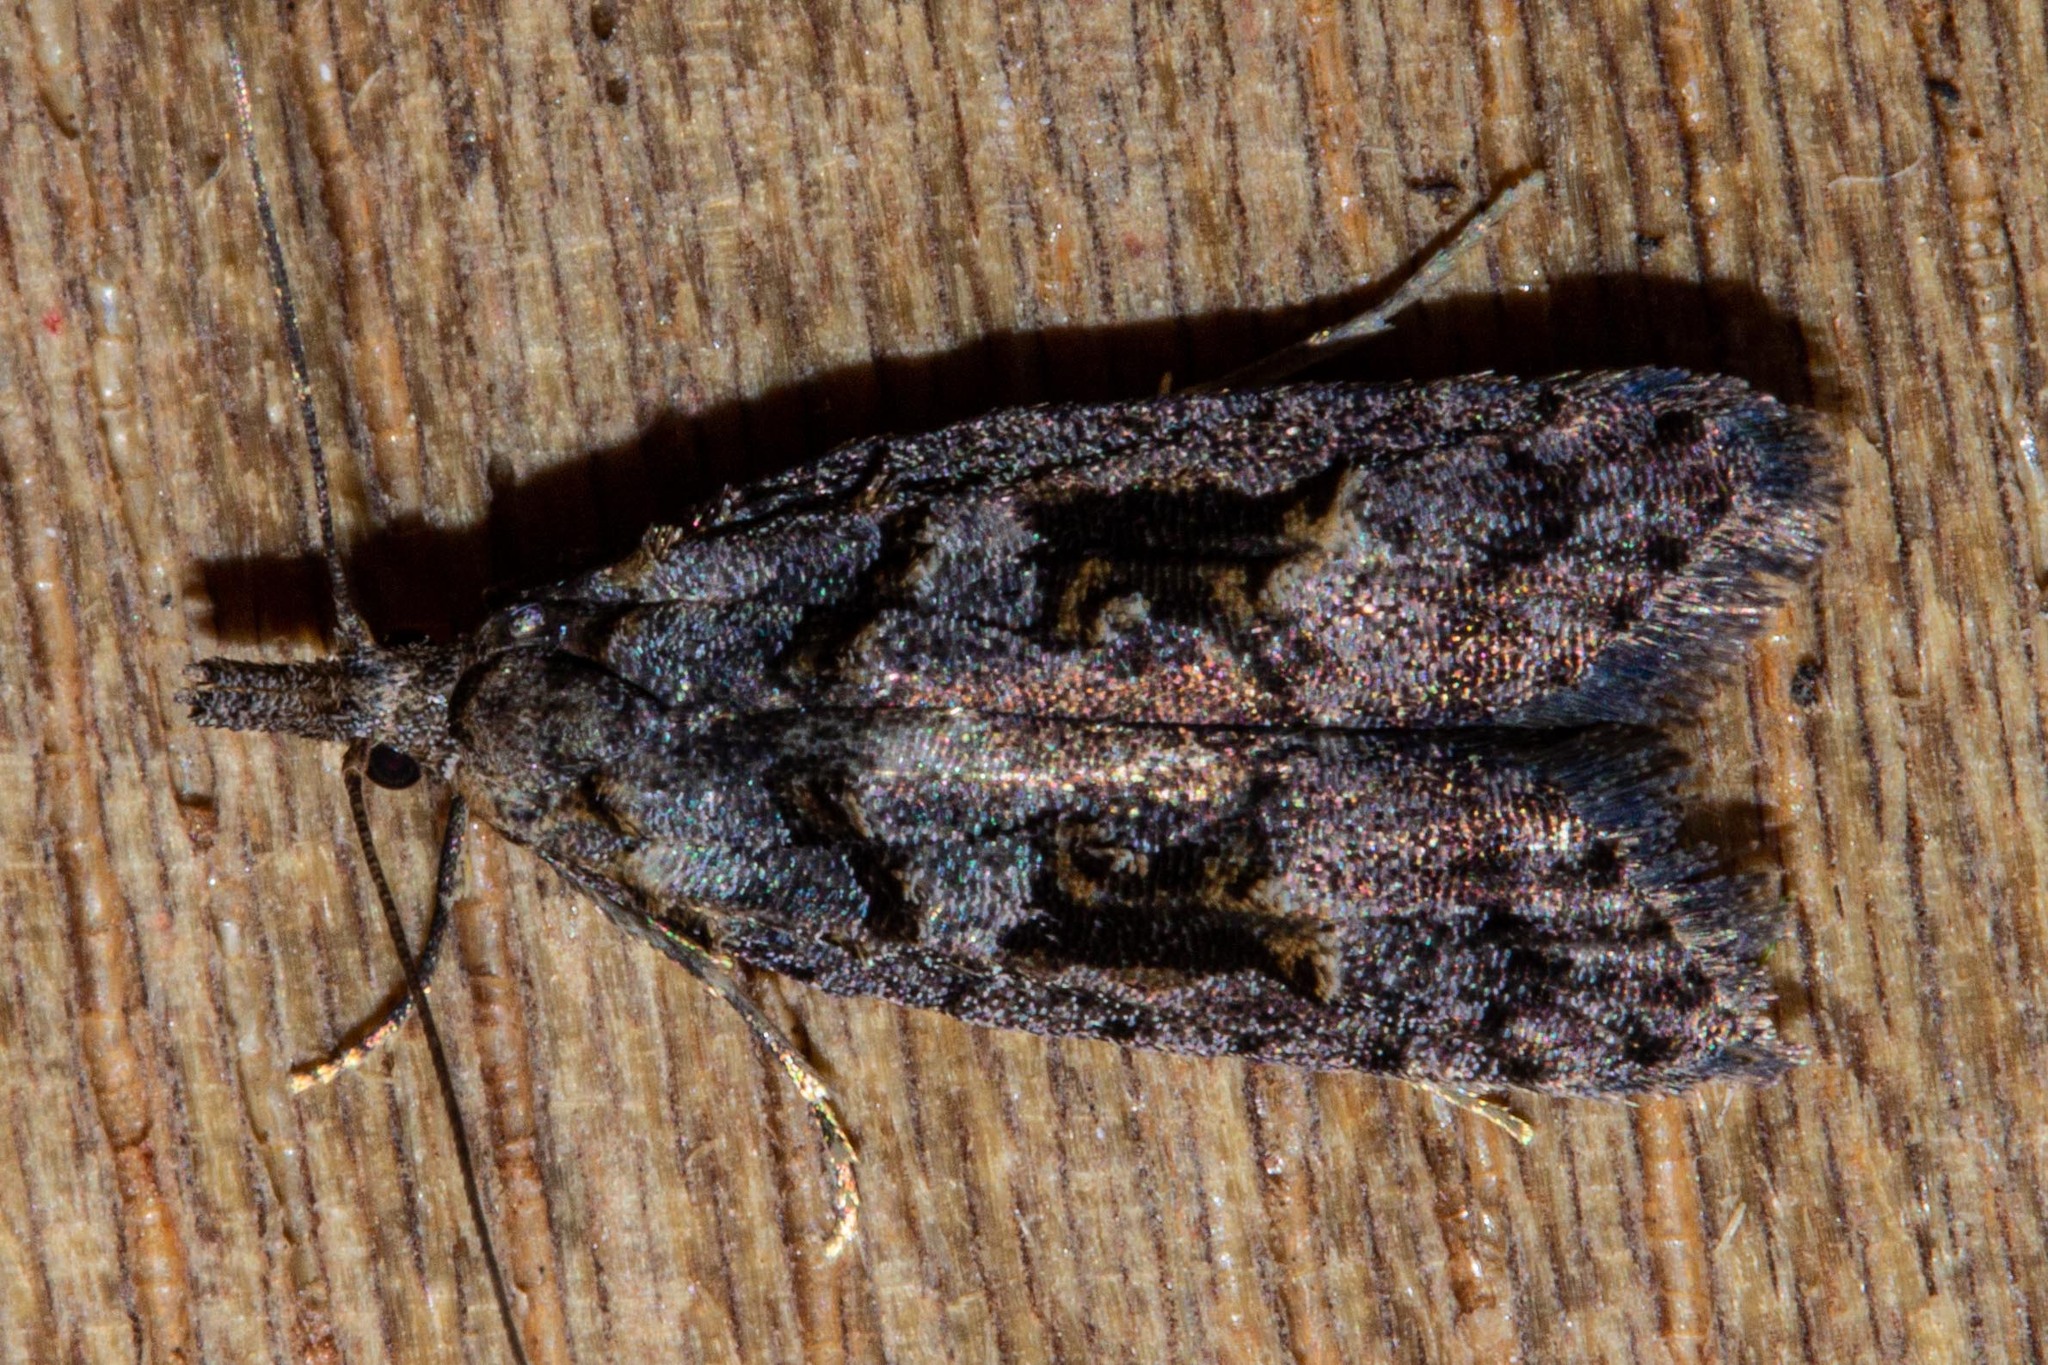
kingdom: Animalia
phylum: Arthropoda
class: Insecta
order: Lepidoptera
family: Carposinidae
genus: Carposina
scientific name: Carposina
